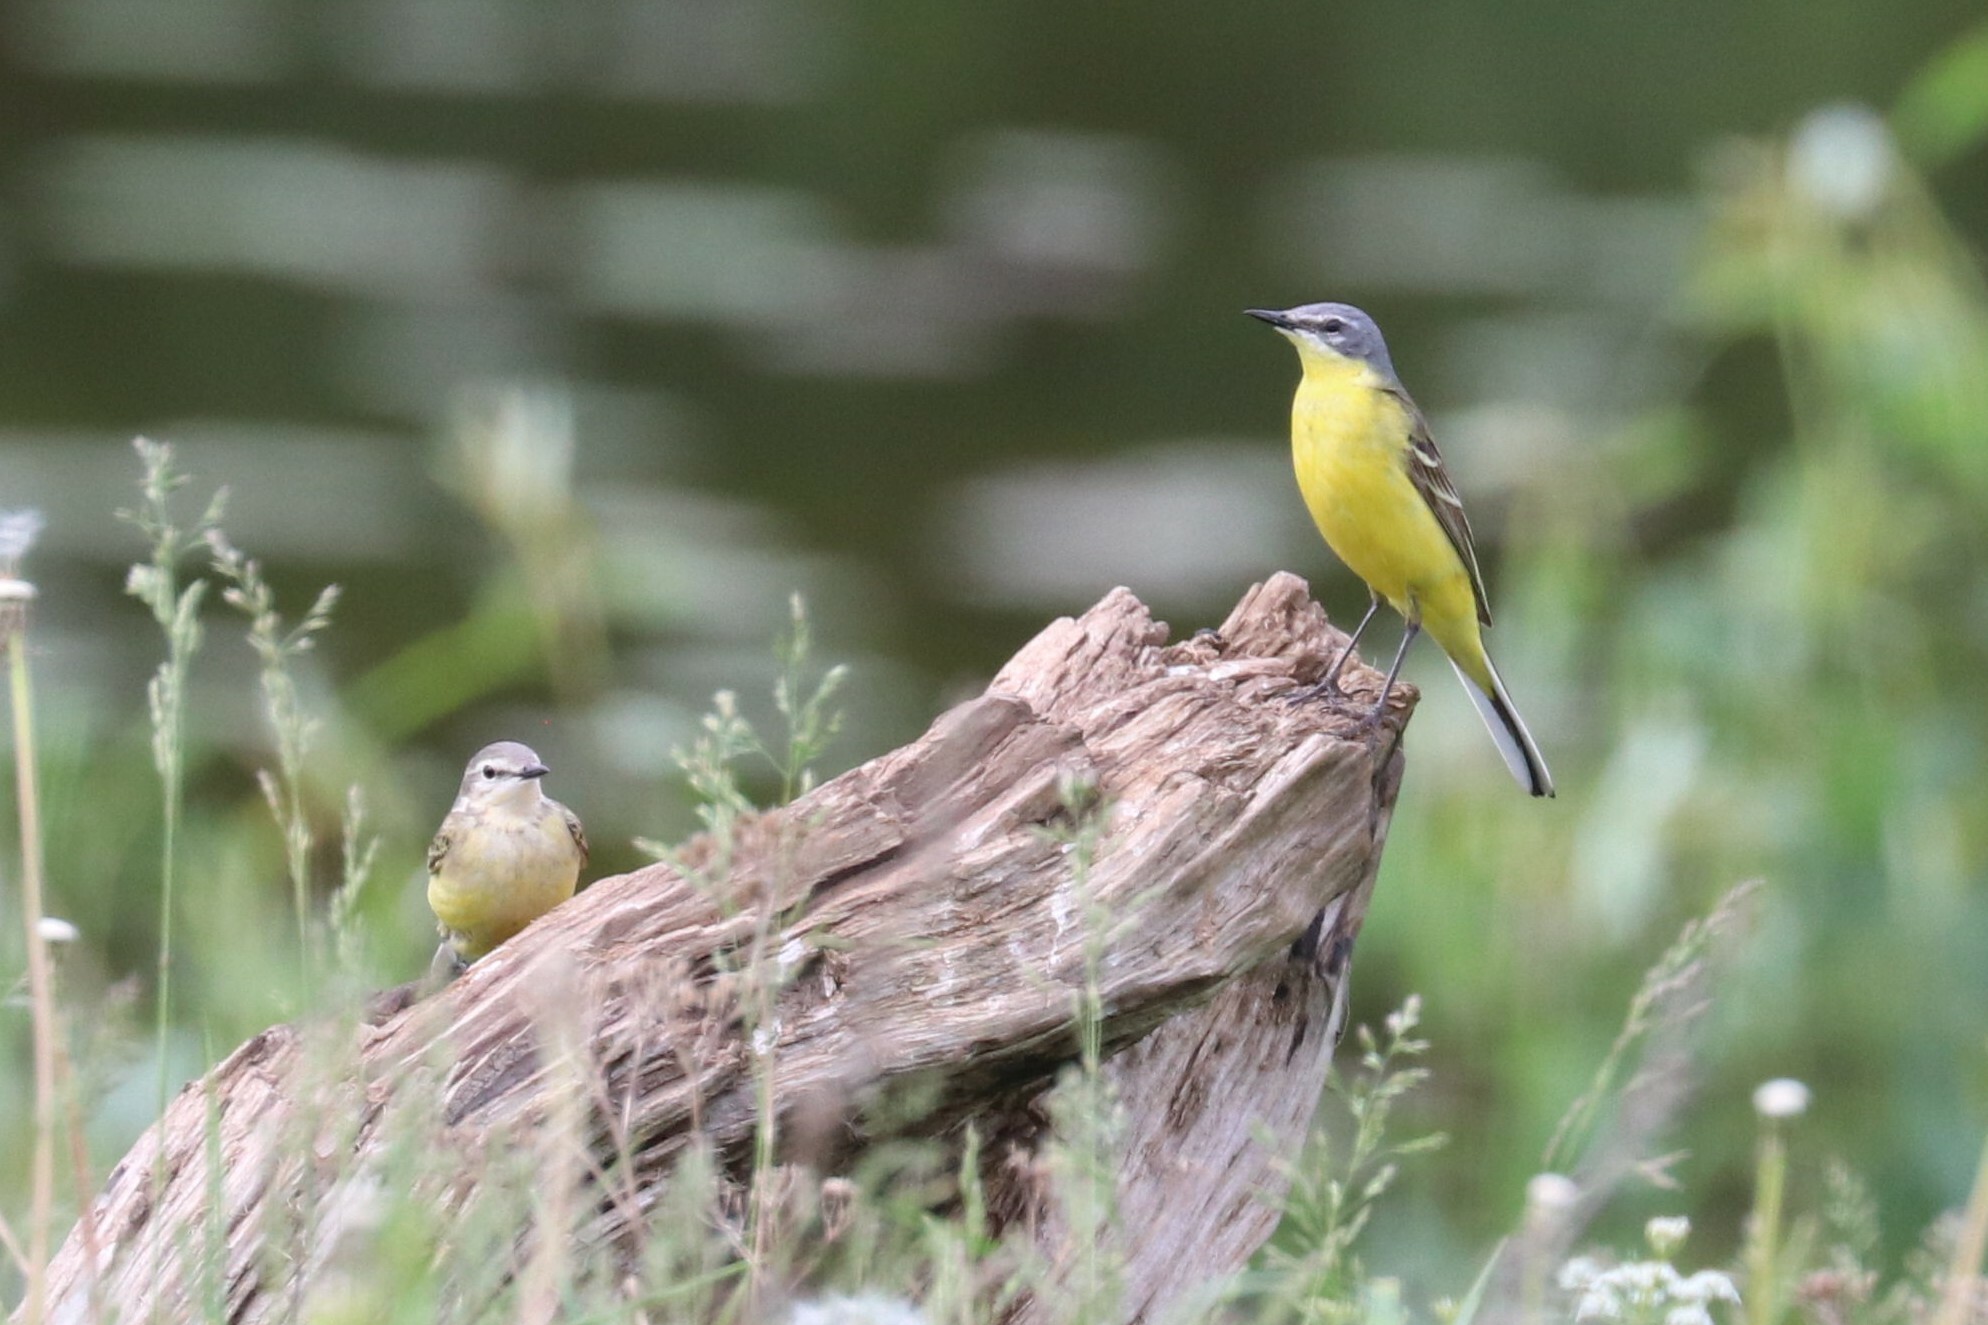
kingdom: Animalia
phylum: Chordata
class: Aves
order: Passeriformes
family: Motacillidae
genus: Motacilla
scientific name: Motacilla flava
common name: Western yellow wagtail
